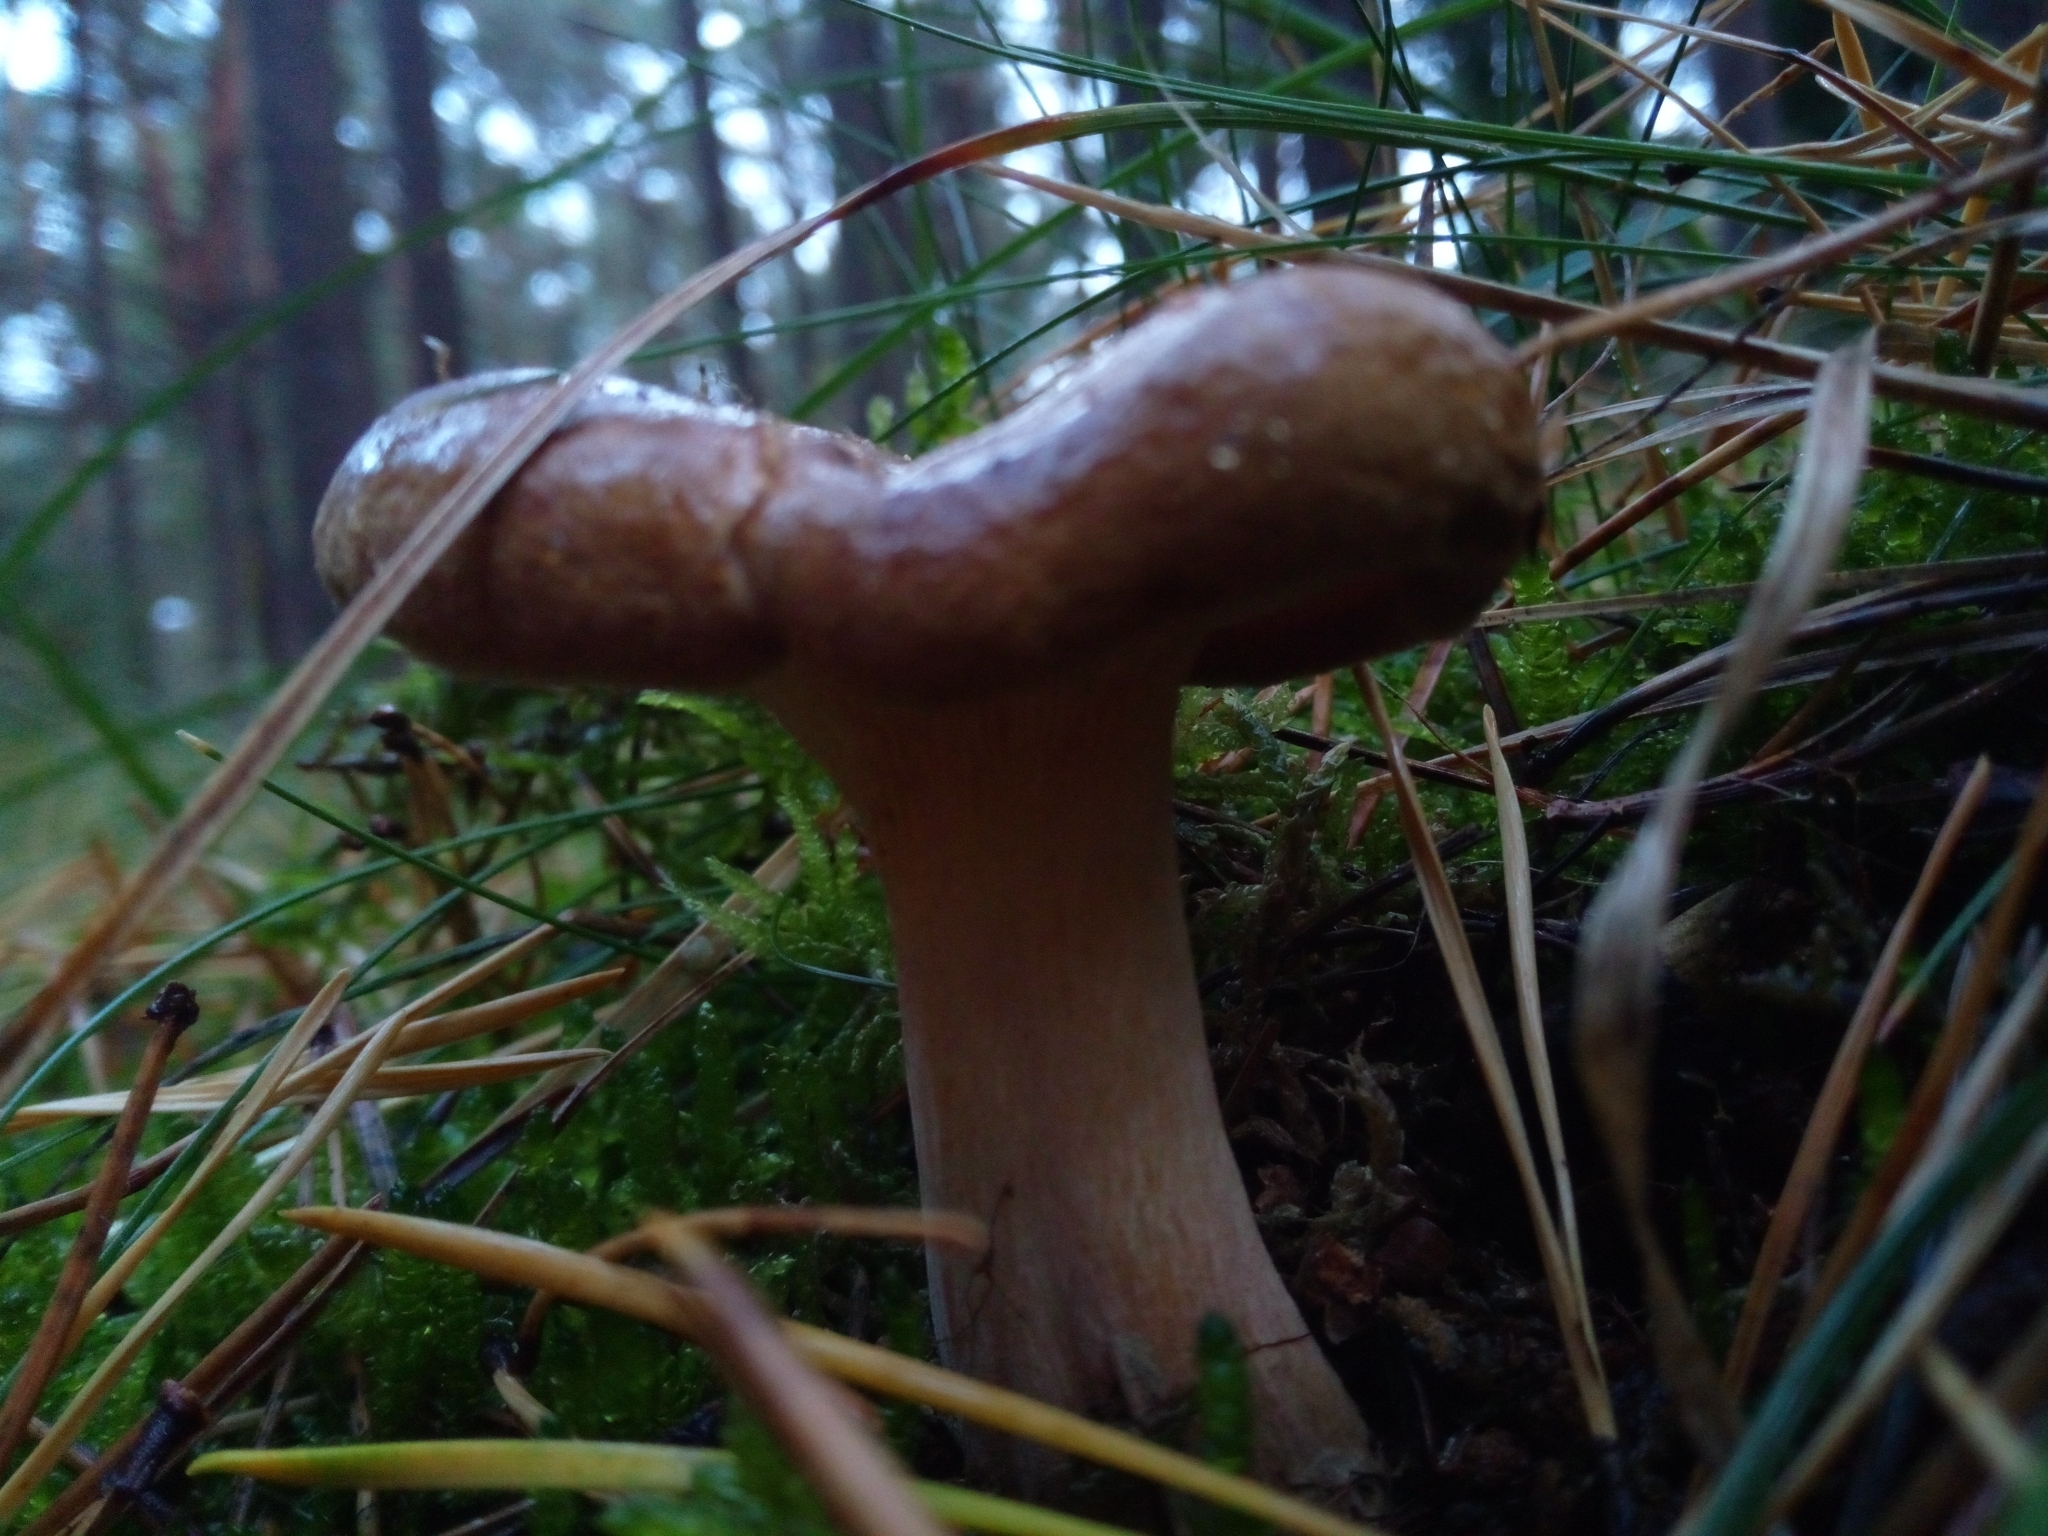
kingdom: Fungi
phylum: Basidiomycota
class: Agaricomycetes
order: Boletales
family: Paxillaceae
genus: Paxillus
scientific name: Paxillus involutus
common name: Brown roll rim
